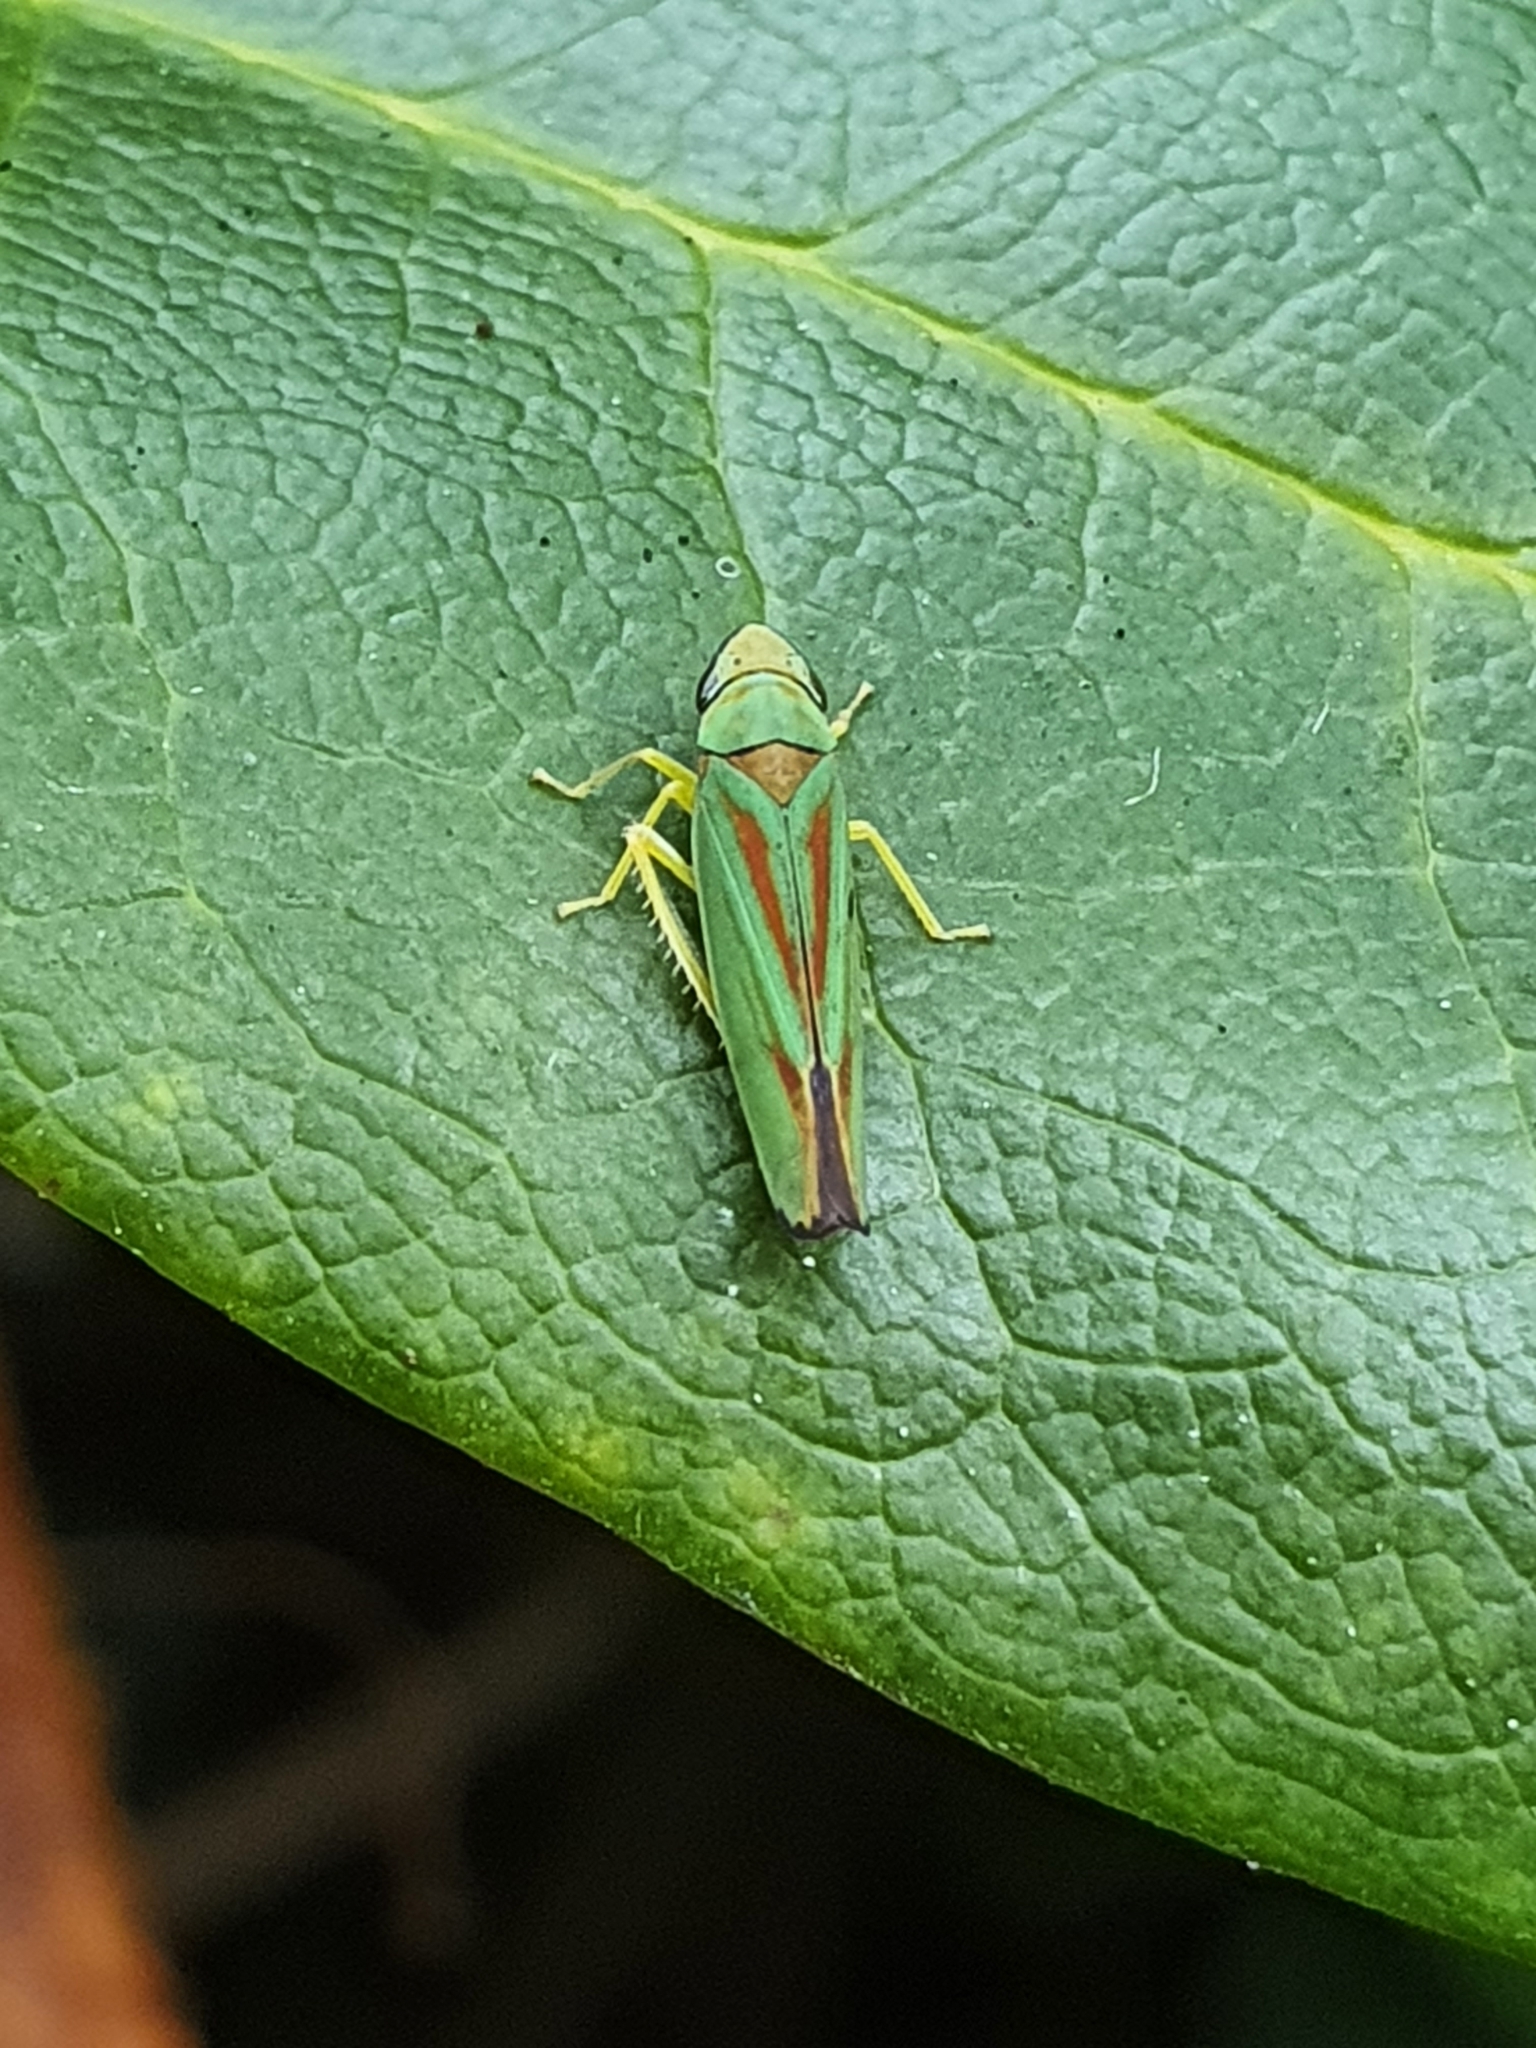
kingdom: Animalia
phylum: Arthropoda
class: Insecta
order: Hemiptera
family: Cicadellidae
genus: Graphocephala
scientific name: Graphocephala fennahi
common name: Rhododendron leafhopper
